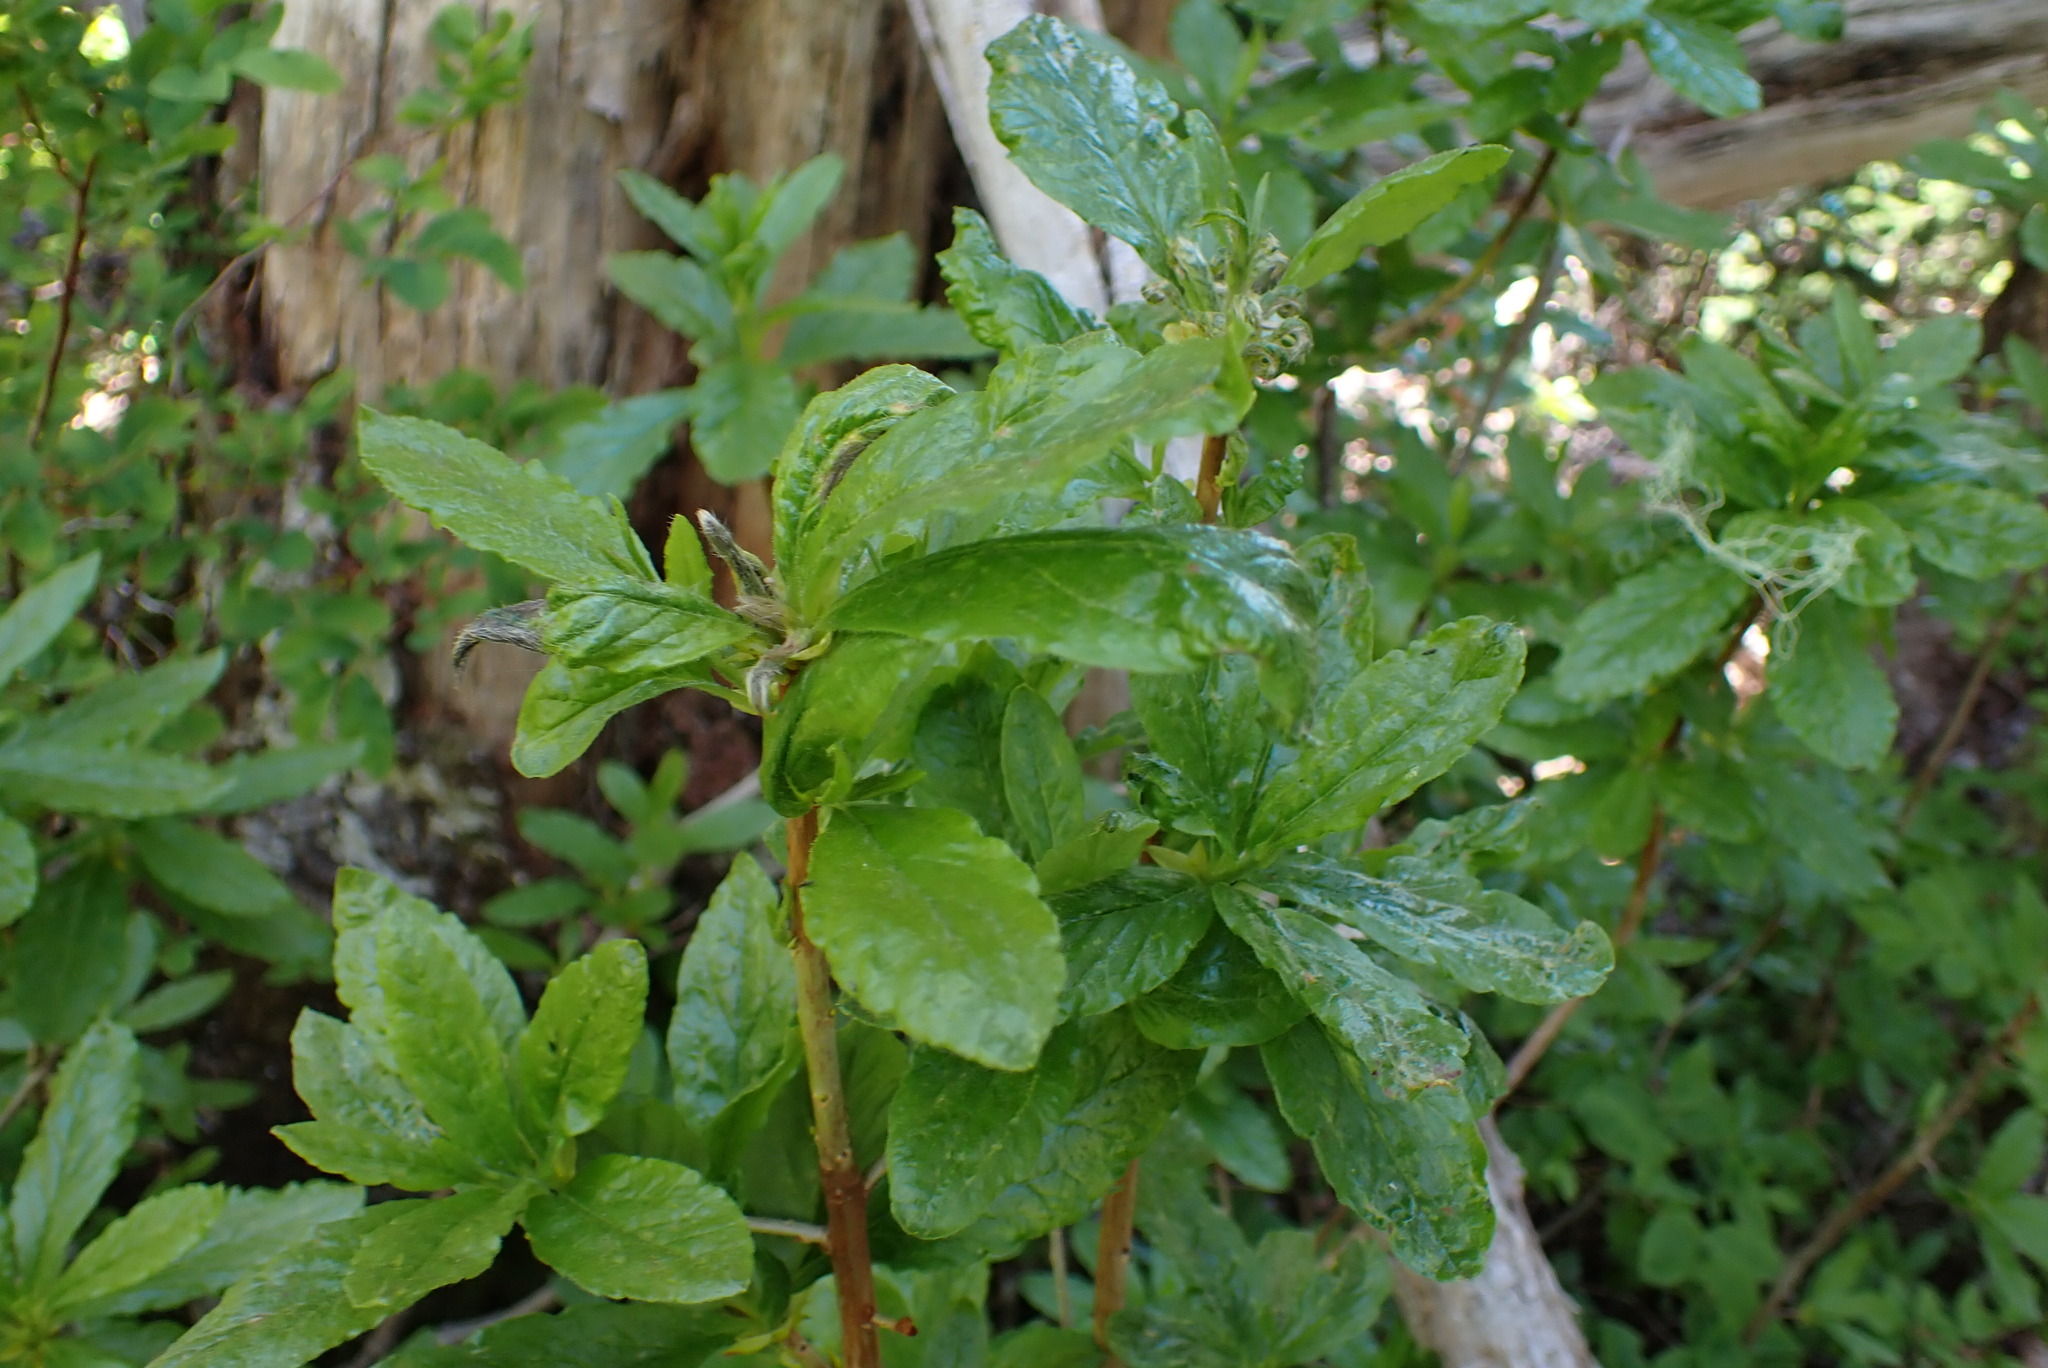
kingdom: Plantae
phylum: Tracheophyta
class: Magnoliopsida
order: Ericales
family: Ericaceae
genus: Rhododendron
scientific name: Rhododendron albiflorum
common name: White rhododendron
